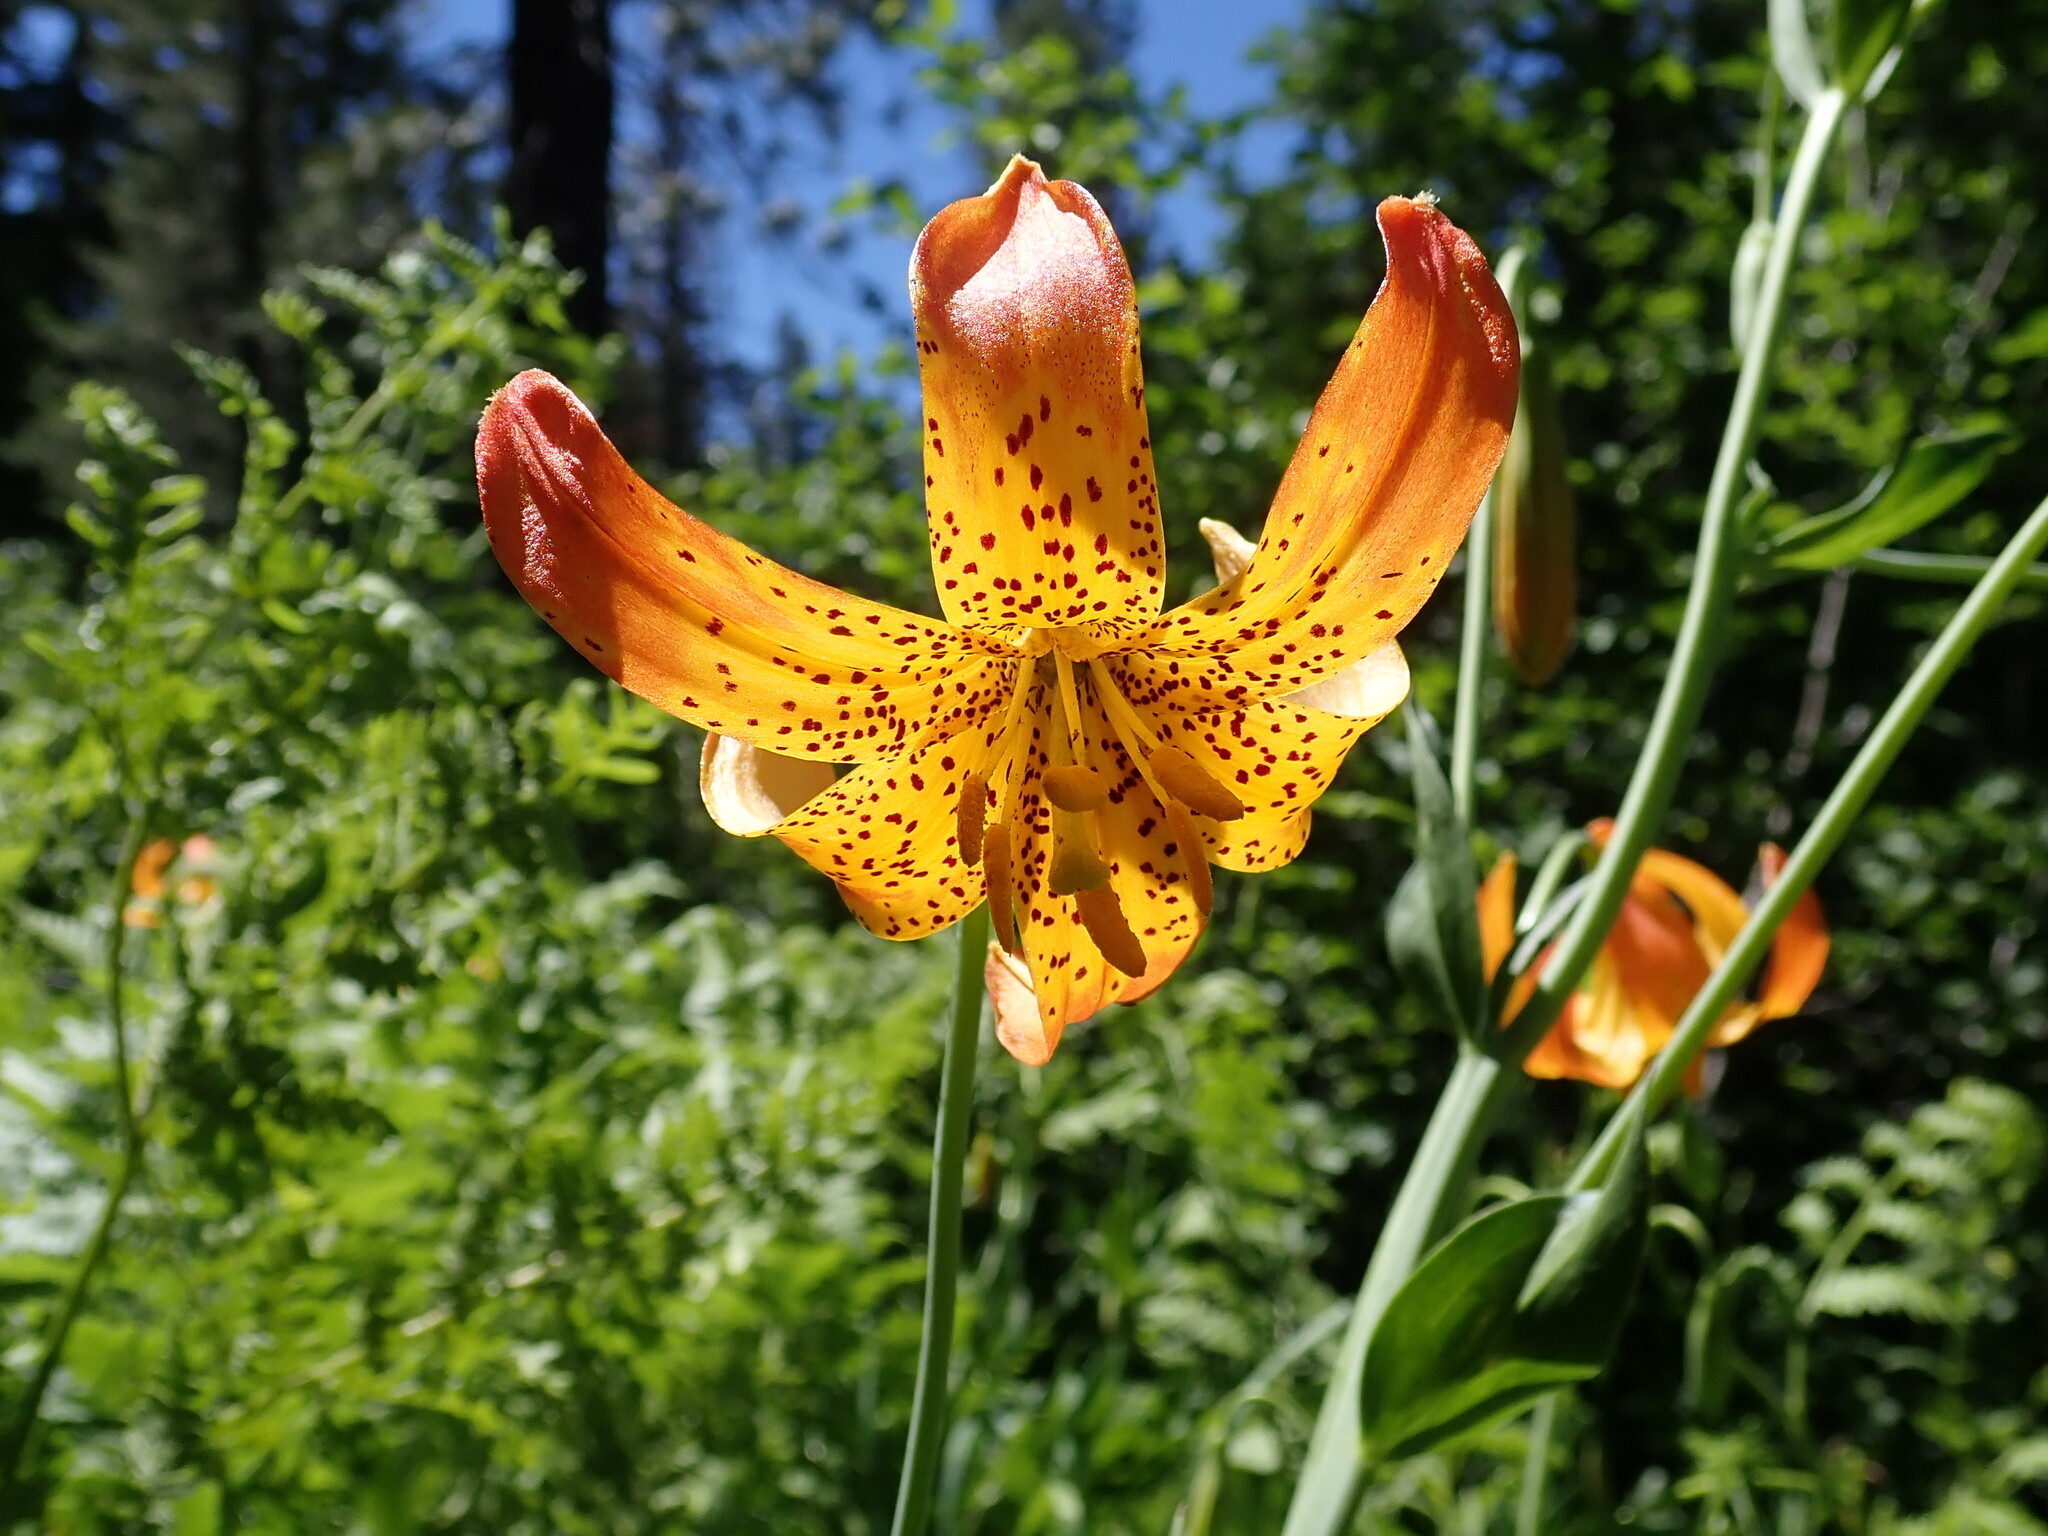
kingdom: Plantae
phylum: Tracheophyta
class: Liliopsida
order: Liliales
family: Liliaceae
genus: Lilium
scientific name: Lilium pardalinum
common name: Panther lily
